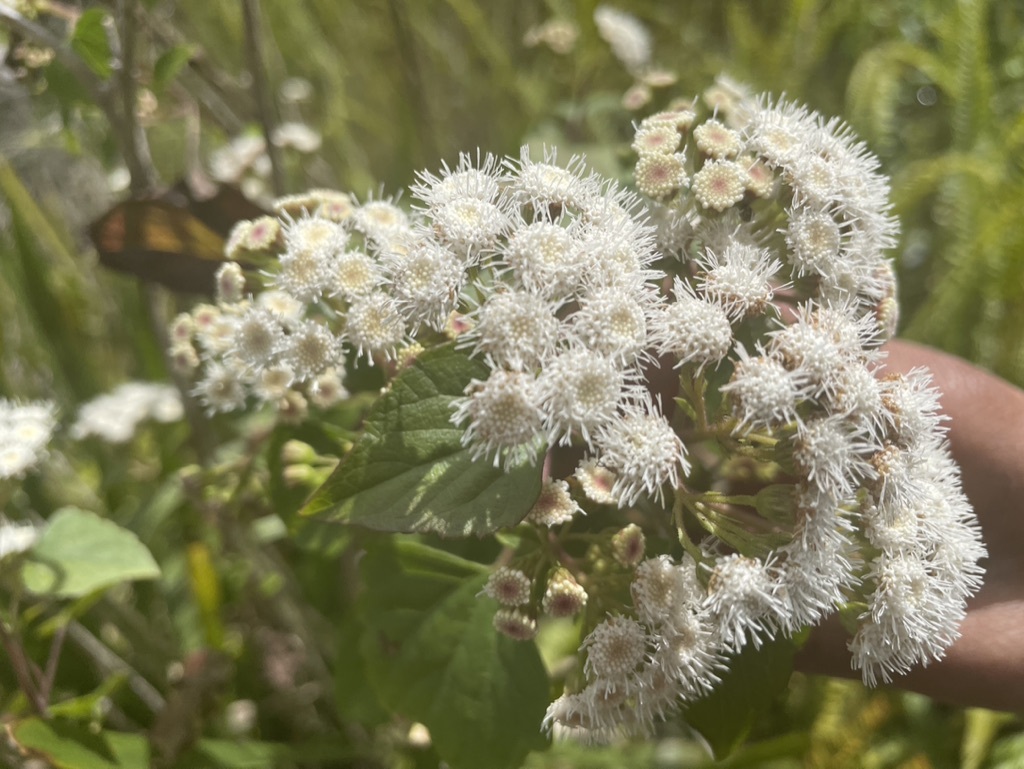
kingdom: Plantae
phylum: Tracheophyta
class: Magnoliopsida
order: Asterales
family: Asteraceae
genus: Ageratina
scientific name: Ageratina adenophora
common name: Sticky snakeroot
